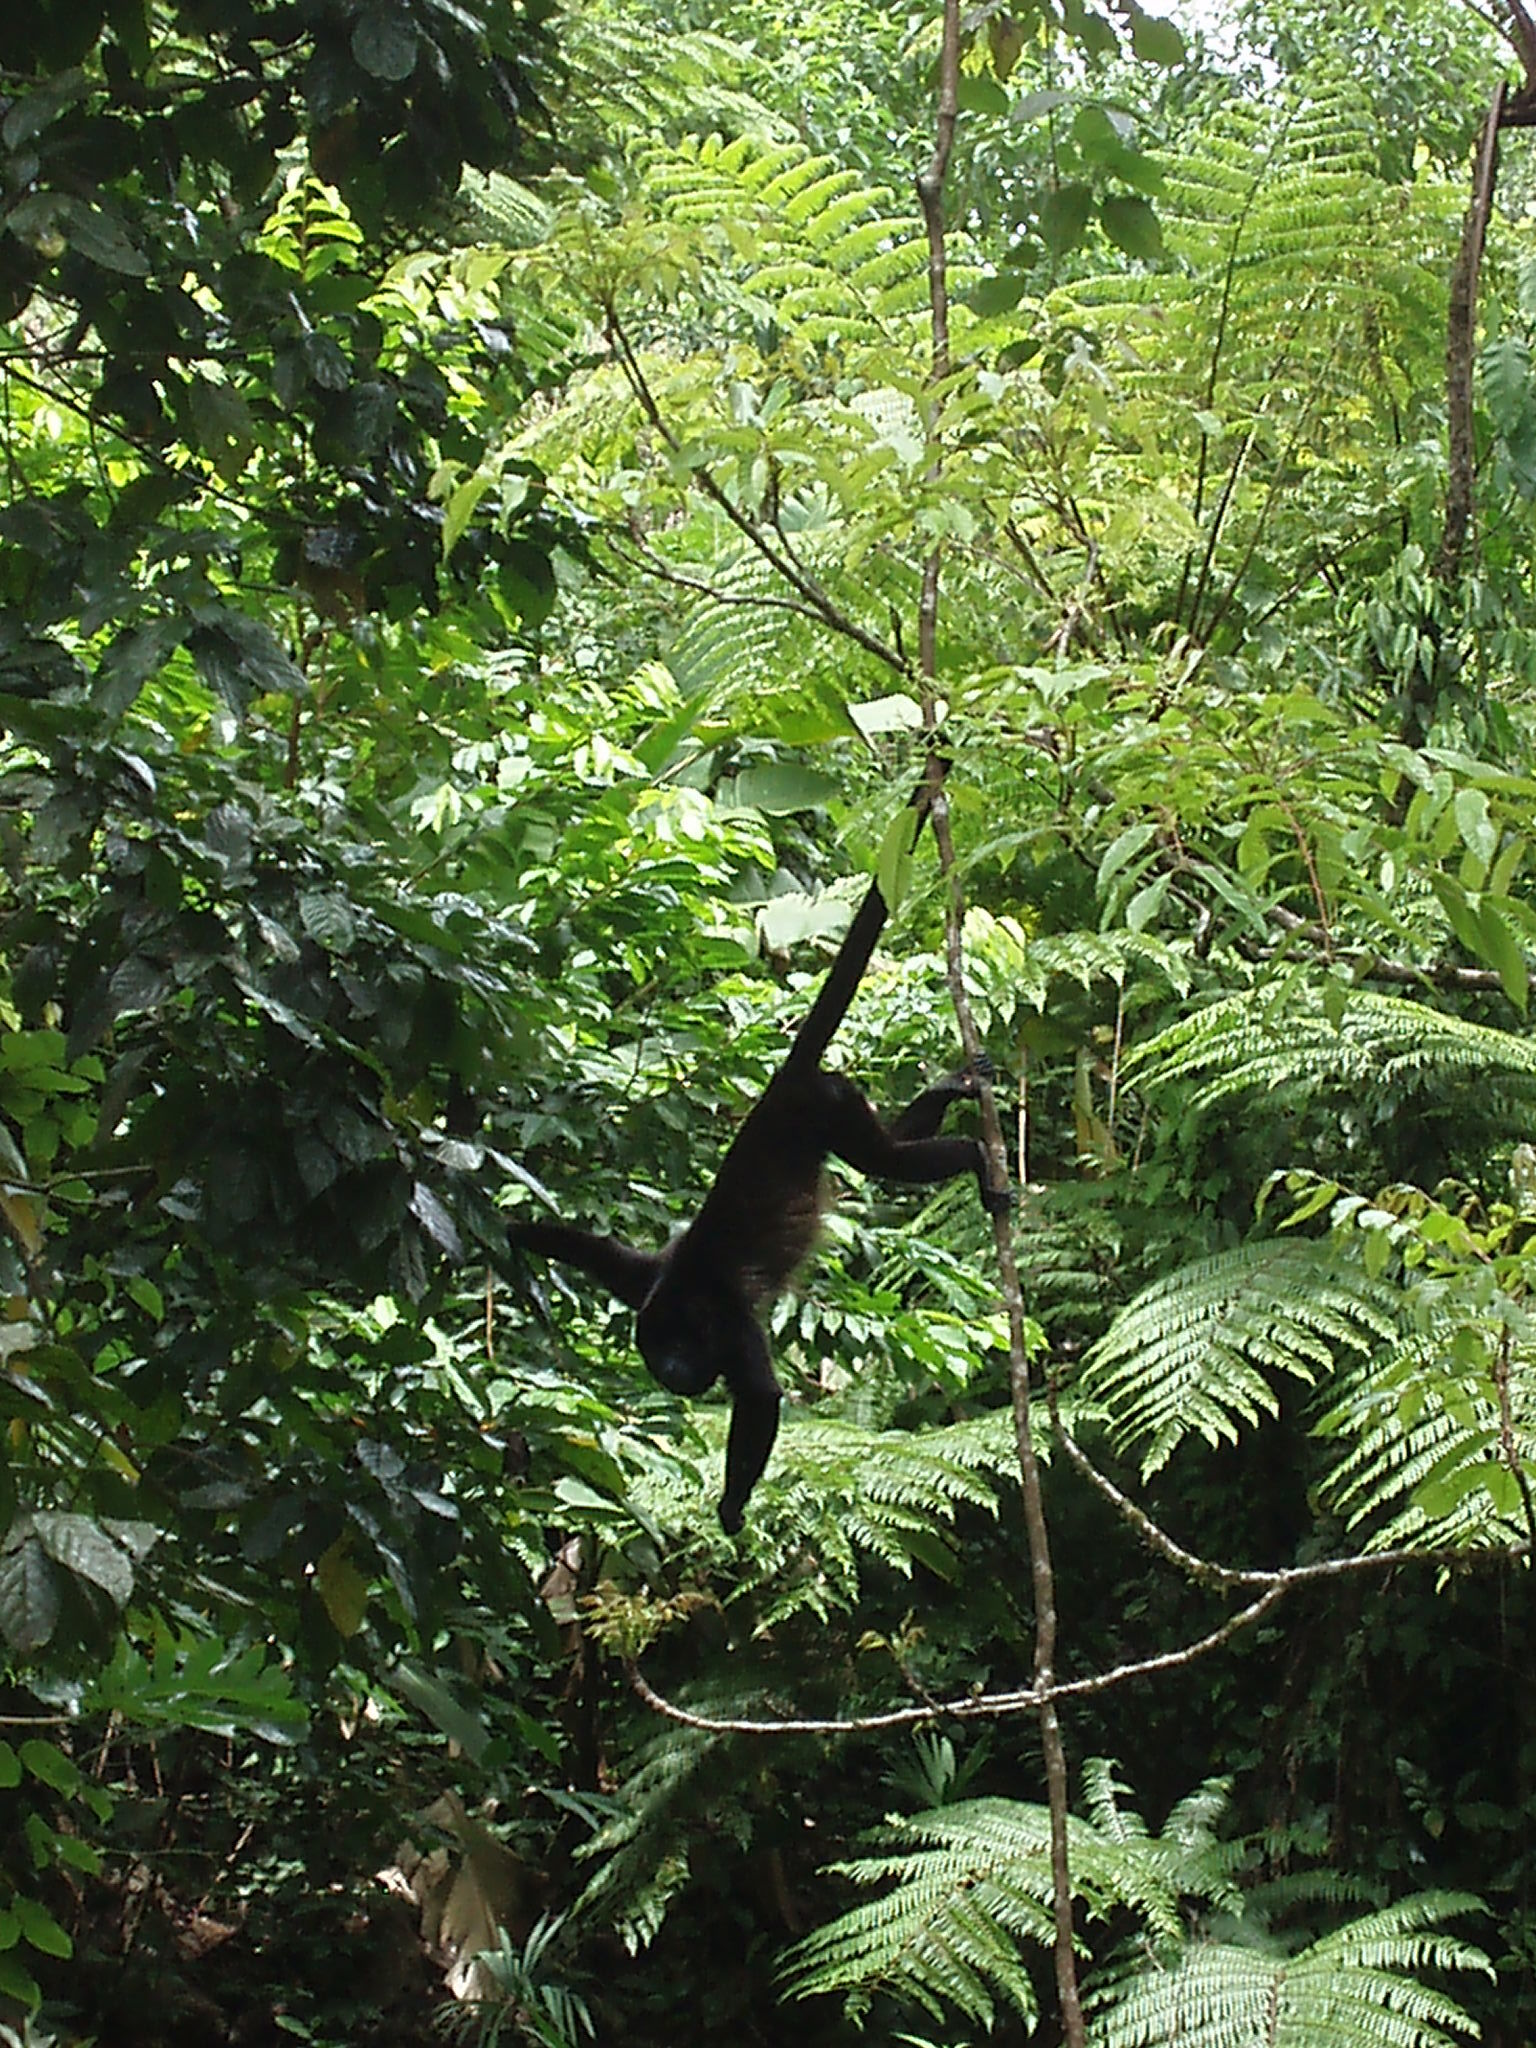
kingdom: Animalia
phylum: Chordata
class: Mammalia
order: Primates
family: Atelidae
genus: Alouatta
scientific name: Alouatta palliata
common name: Mantled howler
